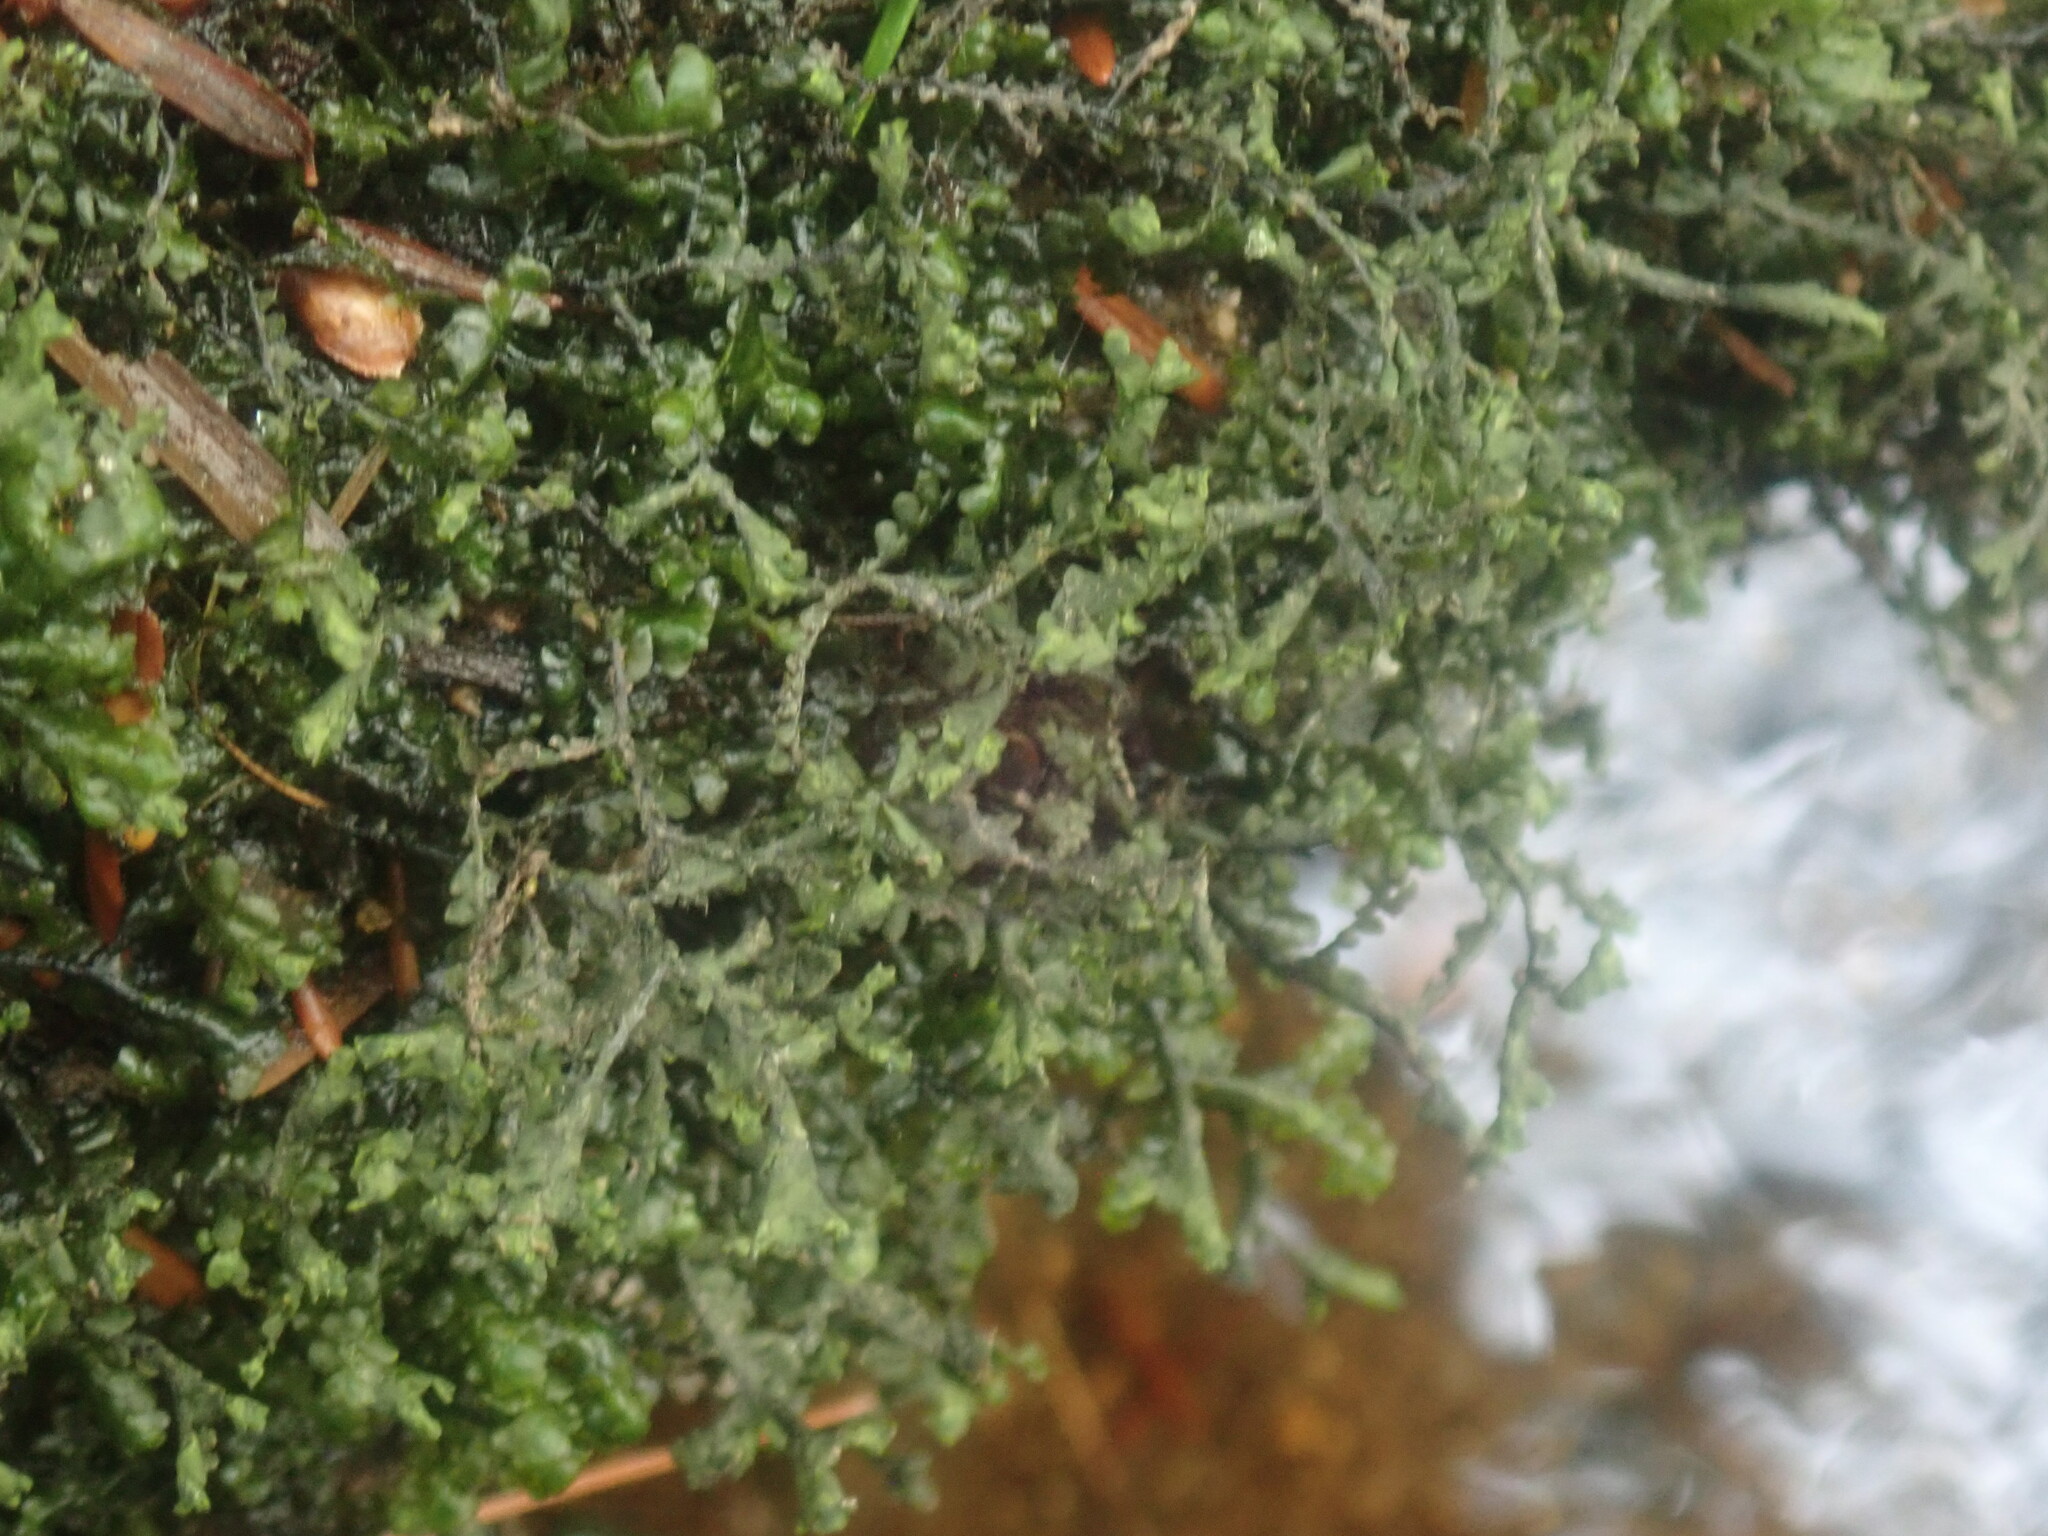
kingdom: Plantae
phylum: Marchantiophyta
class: Jungermanniopsida
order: Porellales
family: Porellaceae
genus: Porella
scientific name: Porella pinnata
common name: Pinnate scalewort
